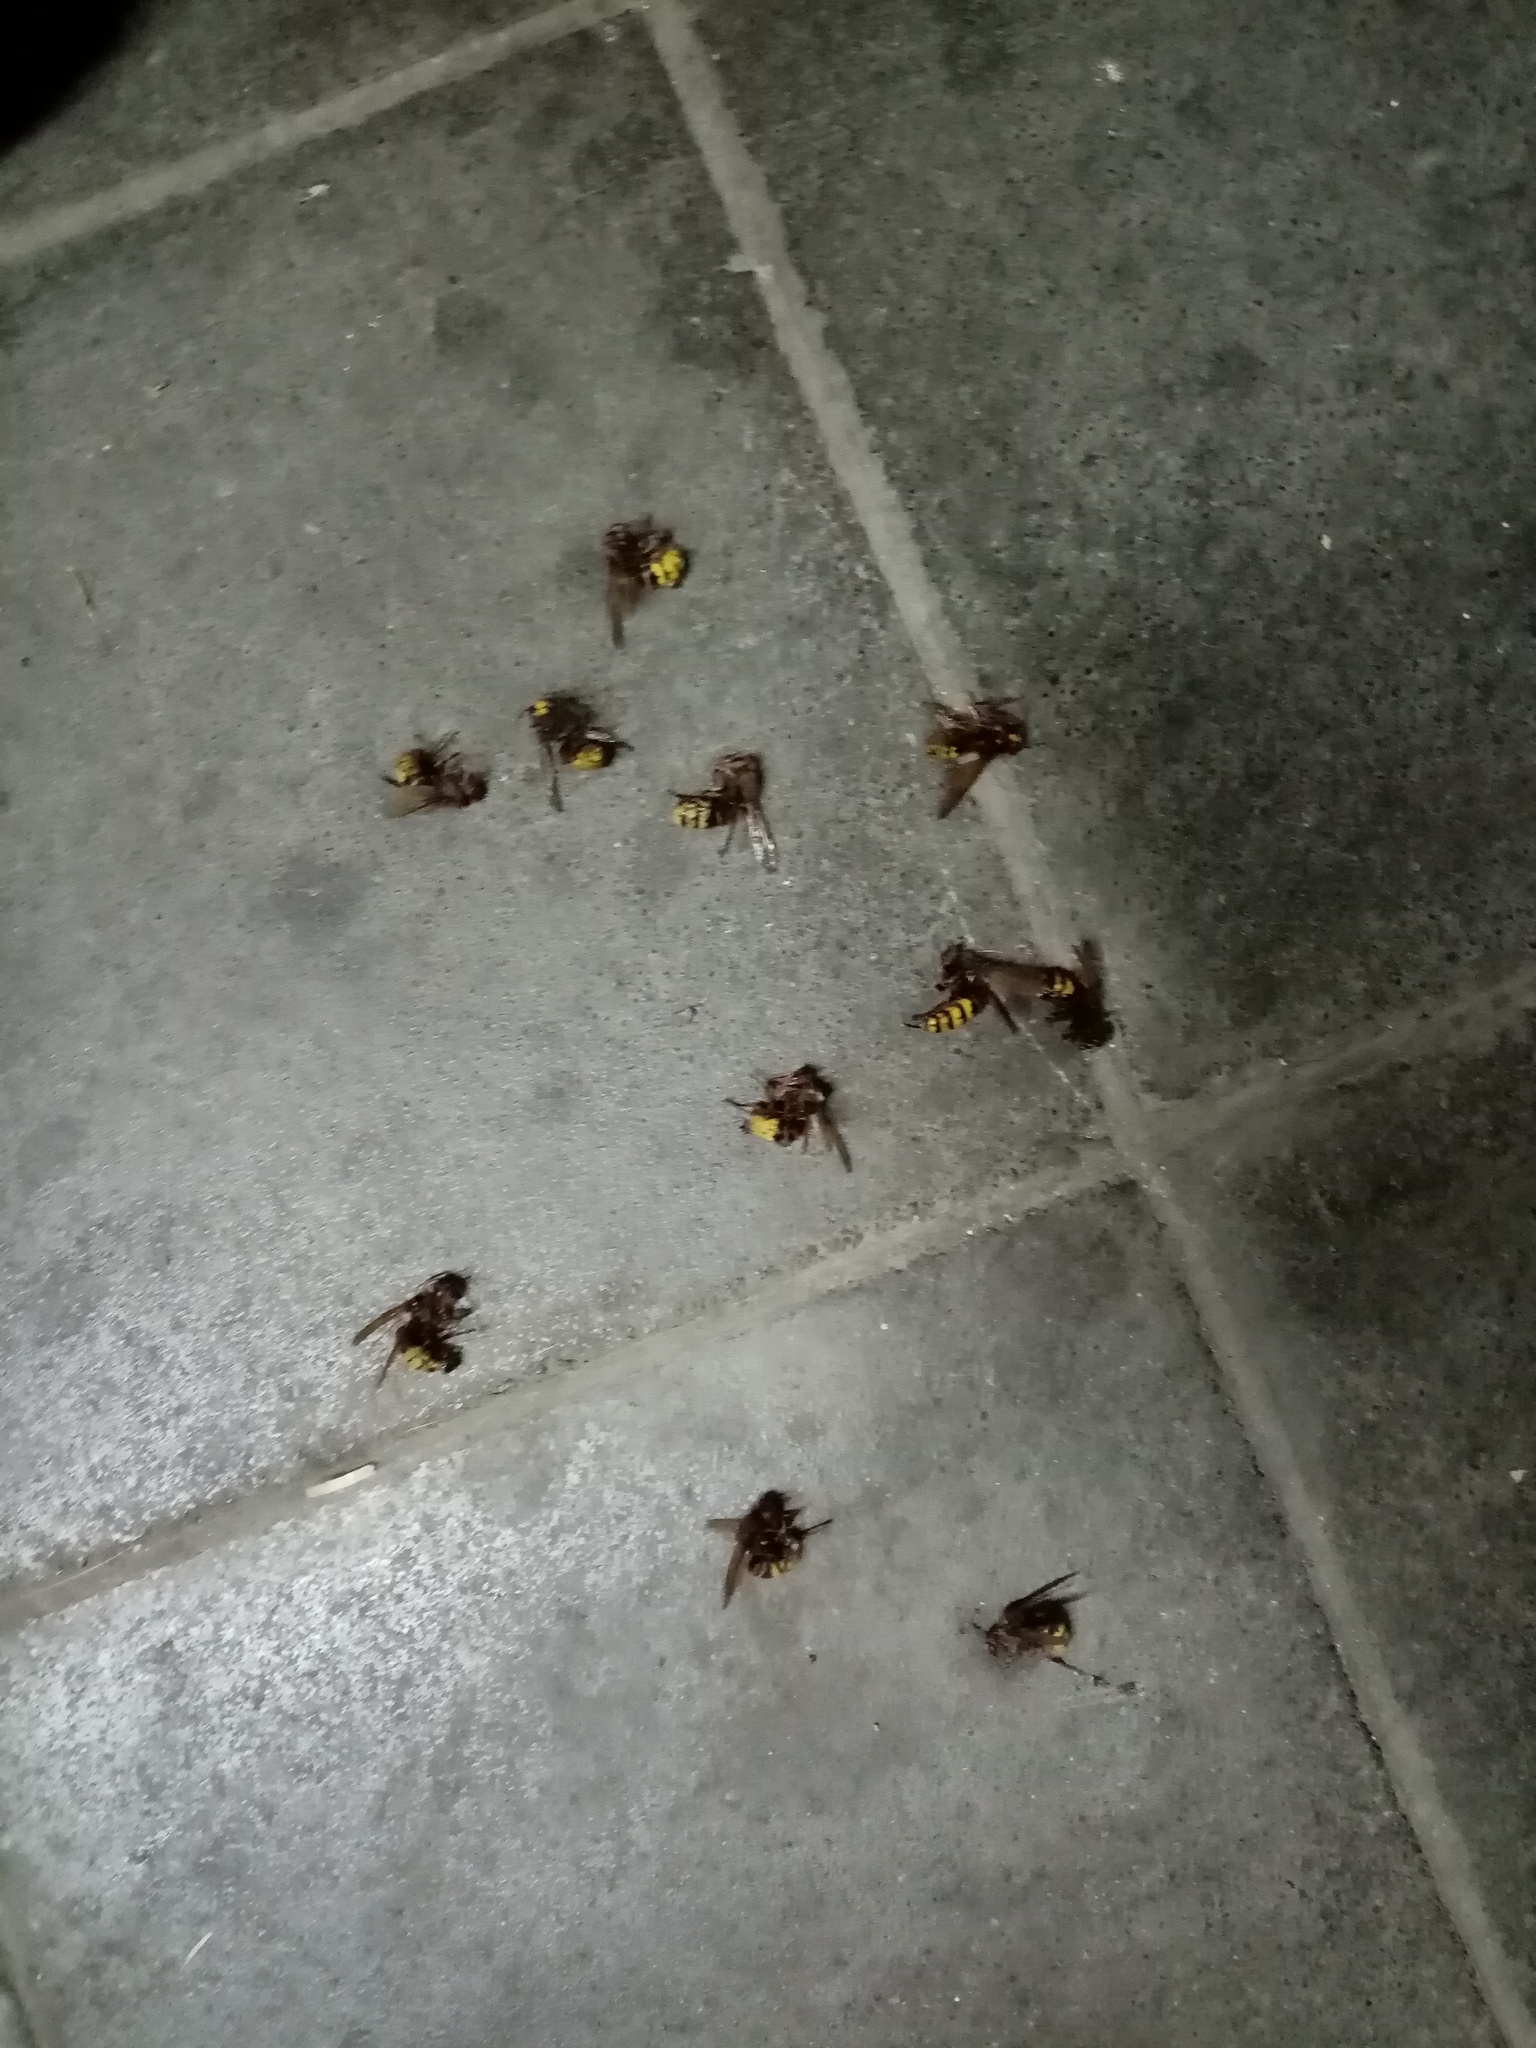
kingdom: Animalia
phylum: Arthropoda
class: Insecta
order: Hymenoptera
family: Vespidae
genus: Vespa
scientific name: Vespa crabro
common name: Hornet
